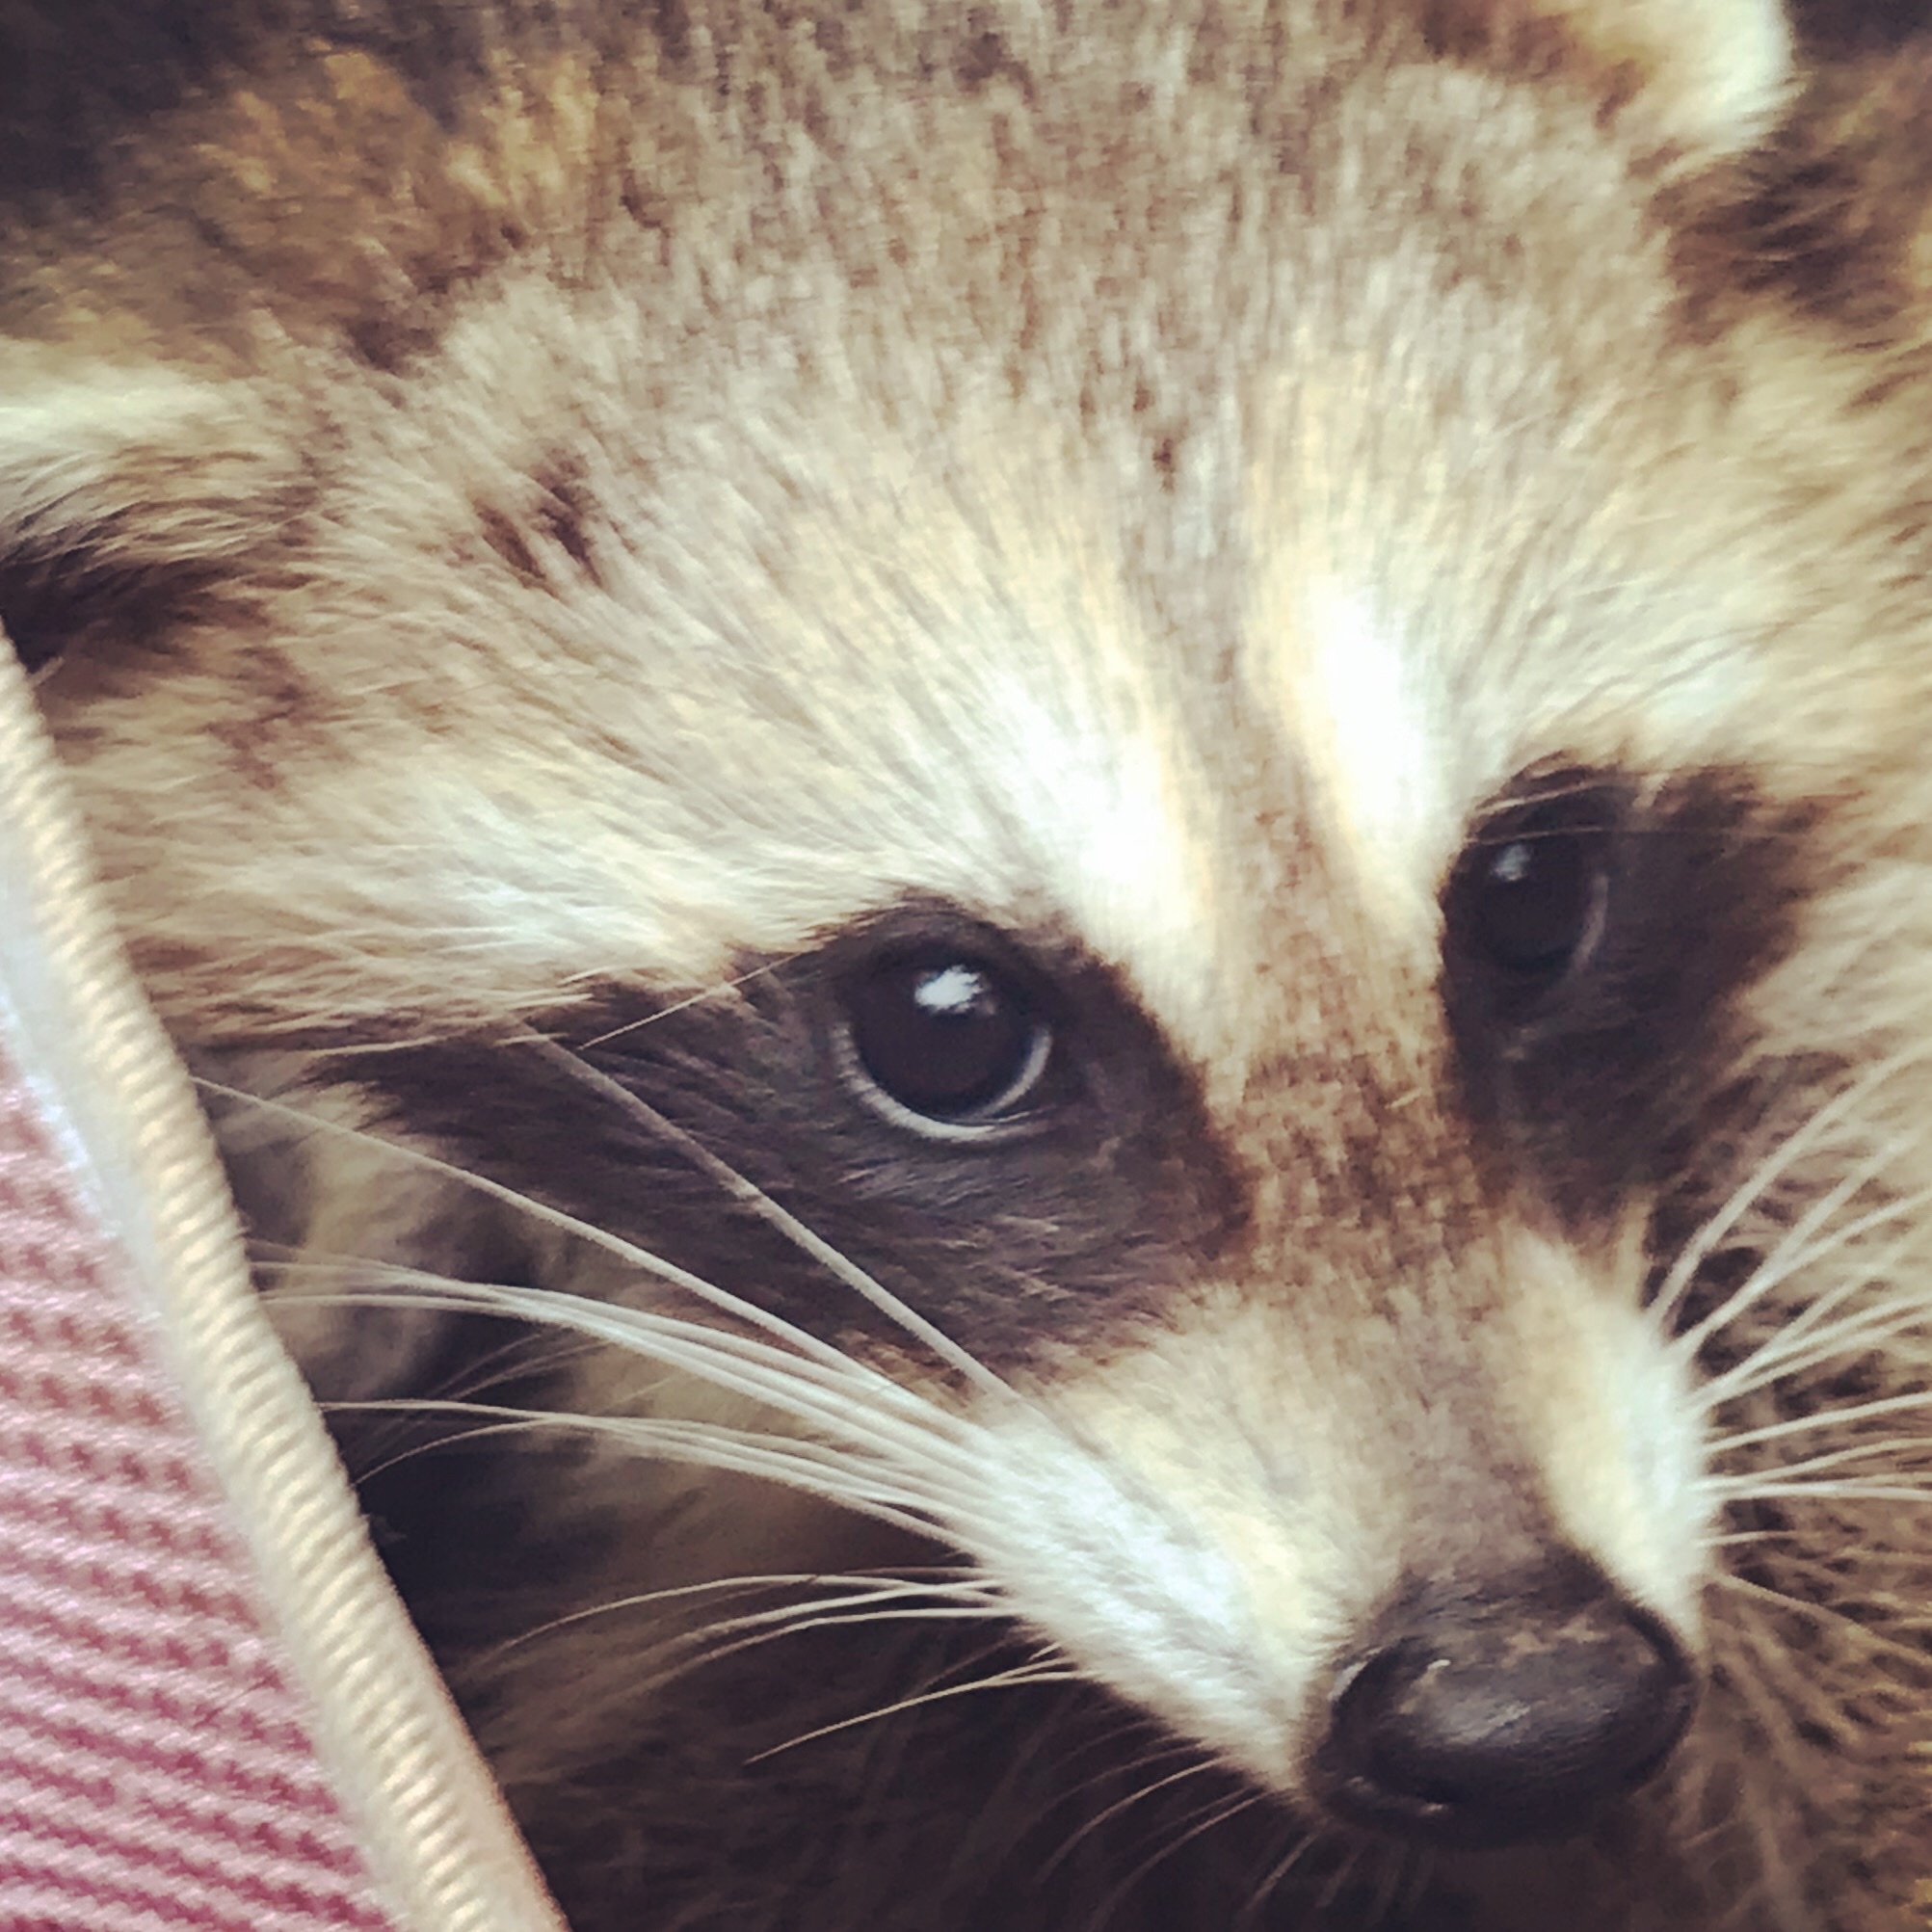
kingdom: Animalia
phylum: Chordata
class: Mammalia
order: Carnivora
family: Procyonidae
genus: Procyon
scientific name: Procyon lotor
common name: Raccoon
